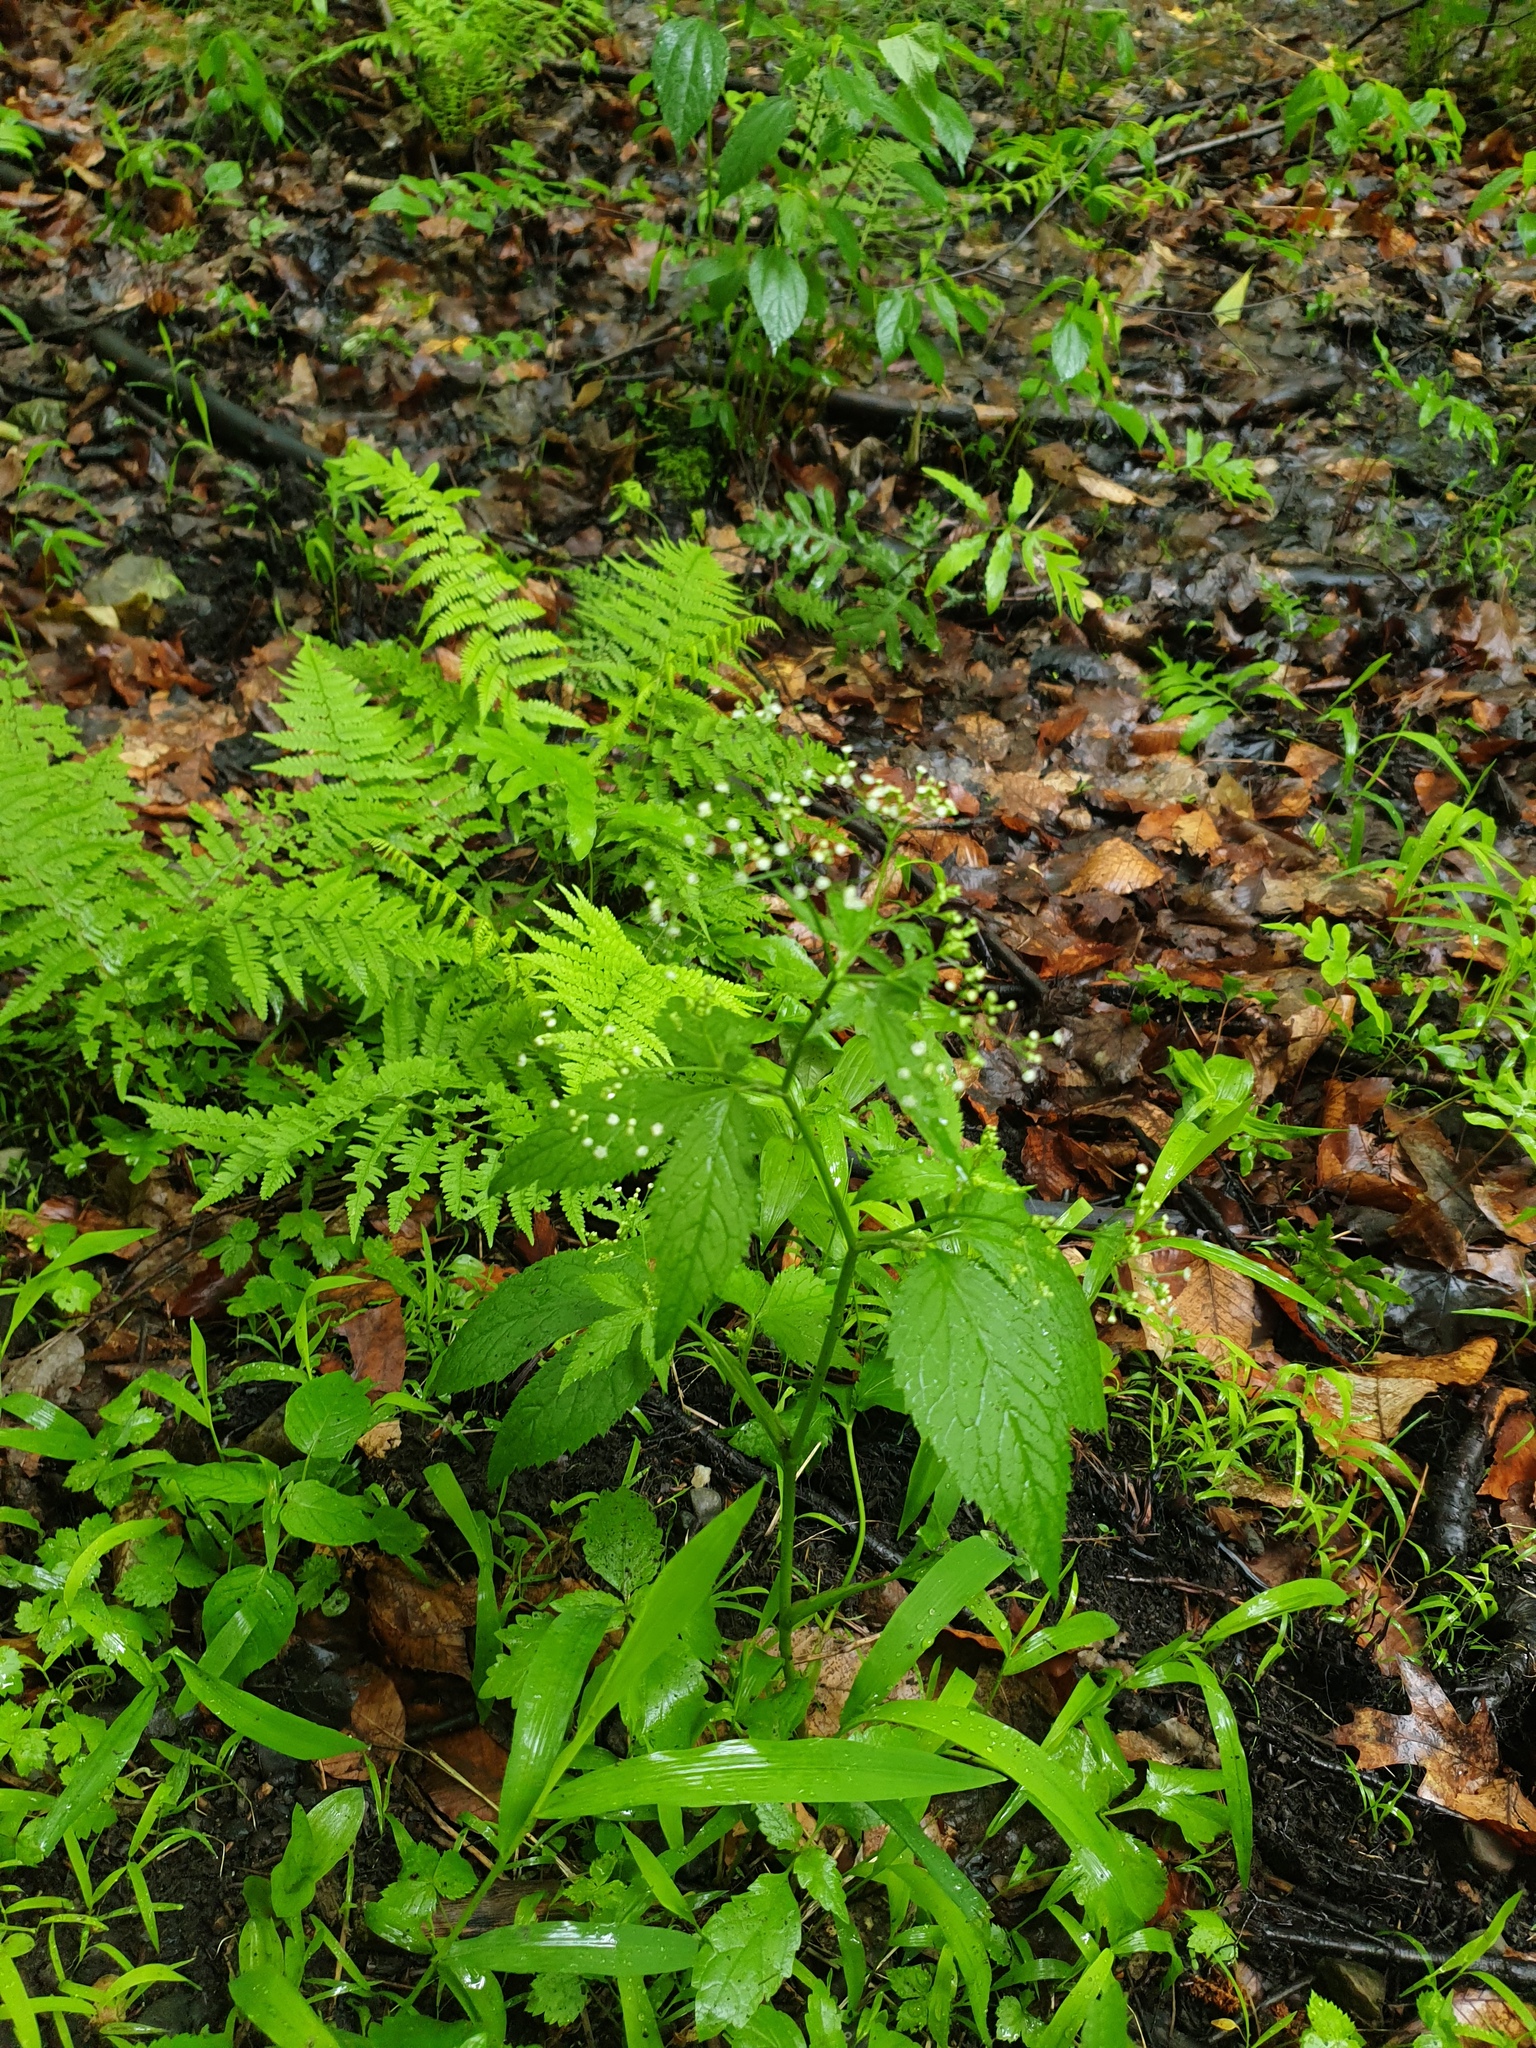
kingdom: Plantae
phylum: Tracheophyta
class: Magnoliopsida
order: Apiales
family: Apiaceae
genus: Cryptotaenia
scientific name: Cryptotaenia canadensis
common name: Honewort
